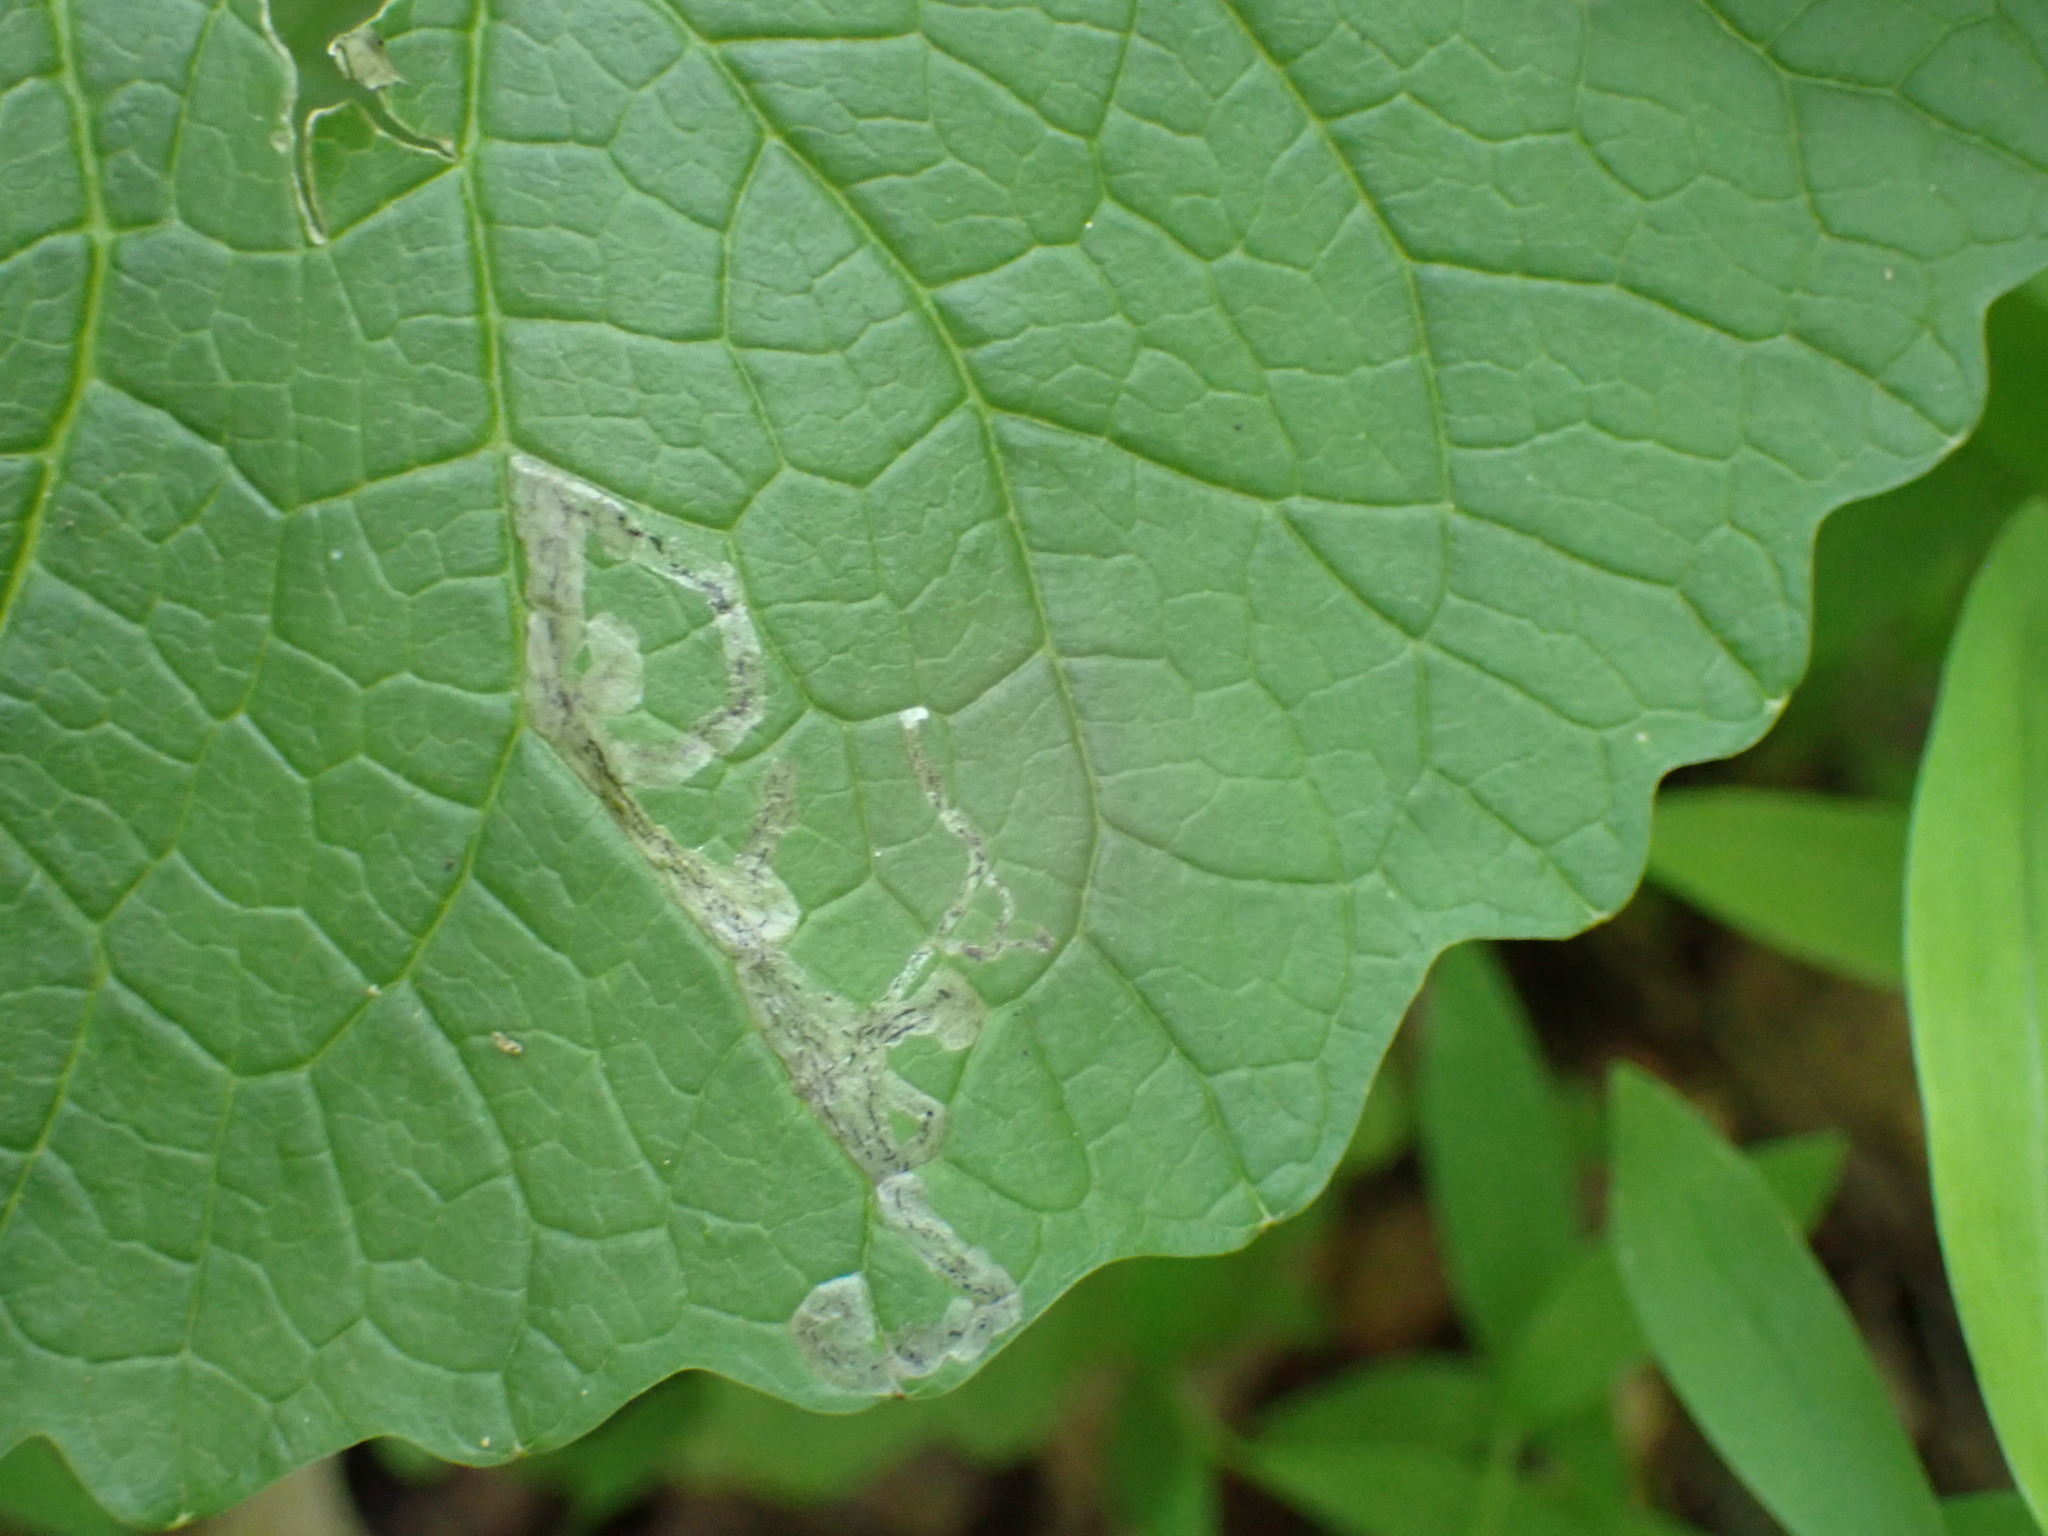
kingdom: Animalia
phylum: Arthropoda
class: Insecta
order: Diptera
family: Agromyzidae
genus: Liriomyza
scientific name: Liriomyza brassicae
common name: Serpentine leaf miner
